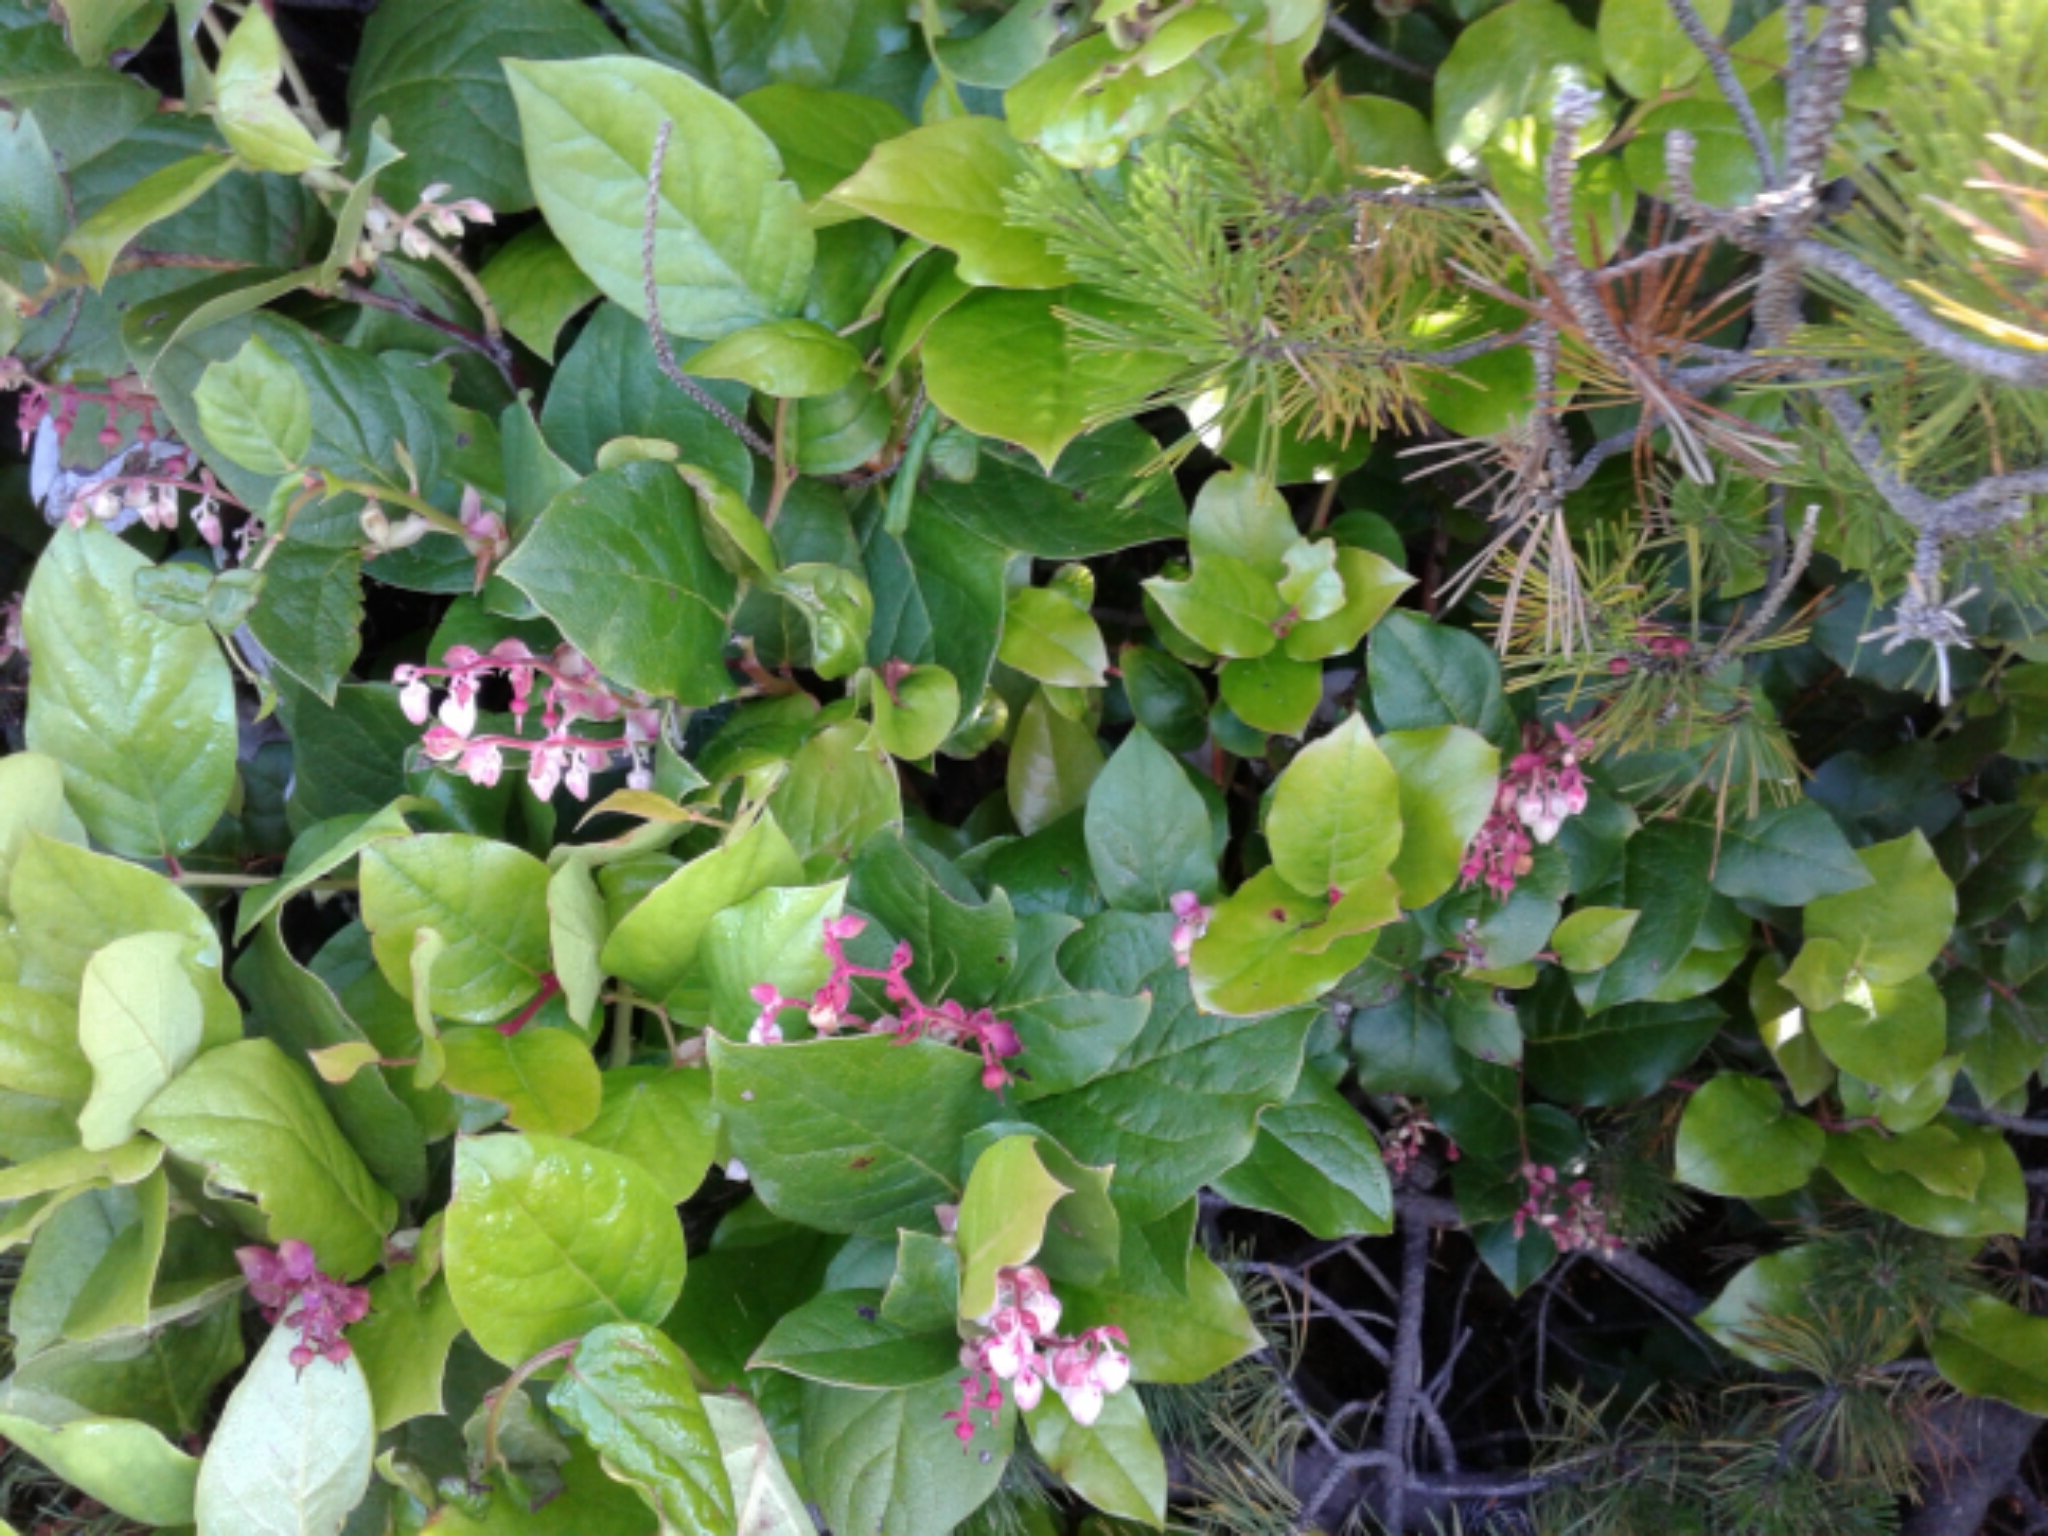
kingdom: Plantae
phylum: Tracheophyta
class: Magnoliopsida
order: Ericales
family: Ericaceae
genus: Gaultheria
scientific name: Gaultheria shallon
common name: Shallon
